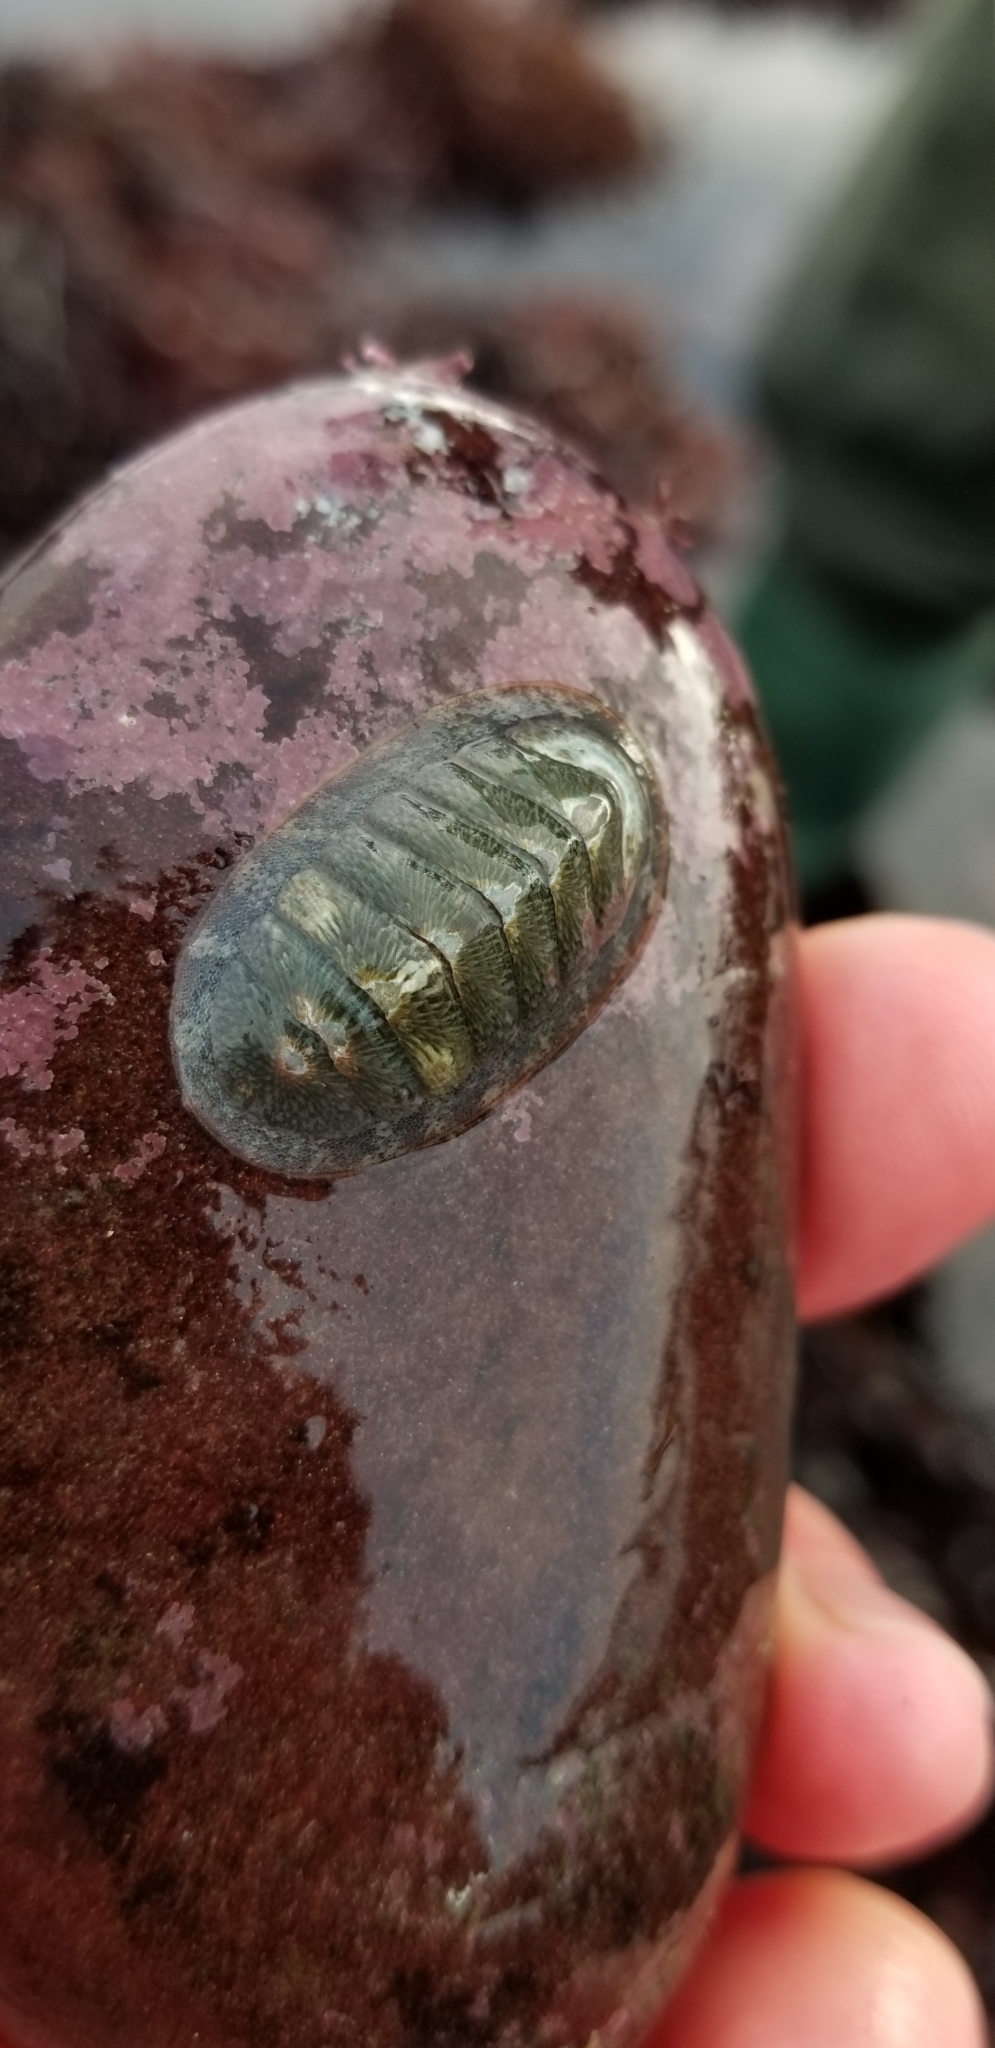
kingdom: Animalia
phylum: Mollusca
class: Polyplacophora
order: Chitonida
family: Ischnochitonidae
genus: Lepidozona
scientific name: Lepidozona radians
